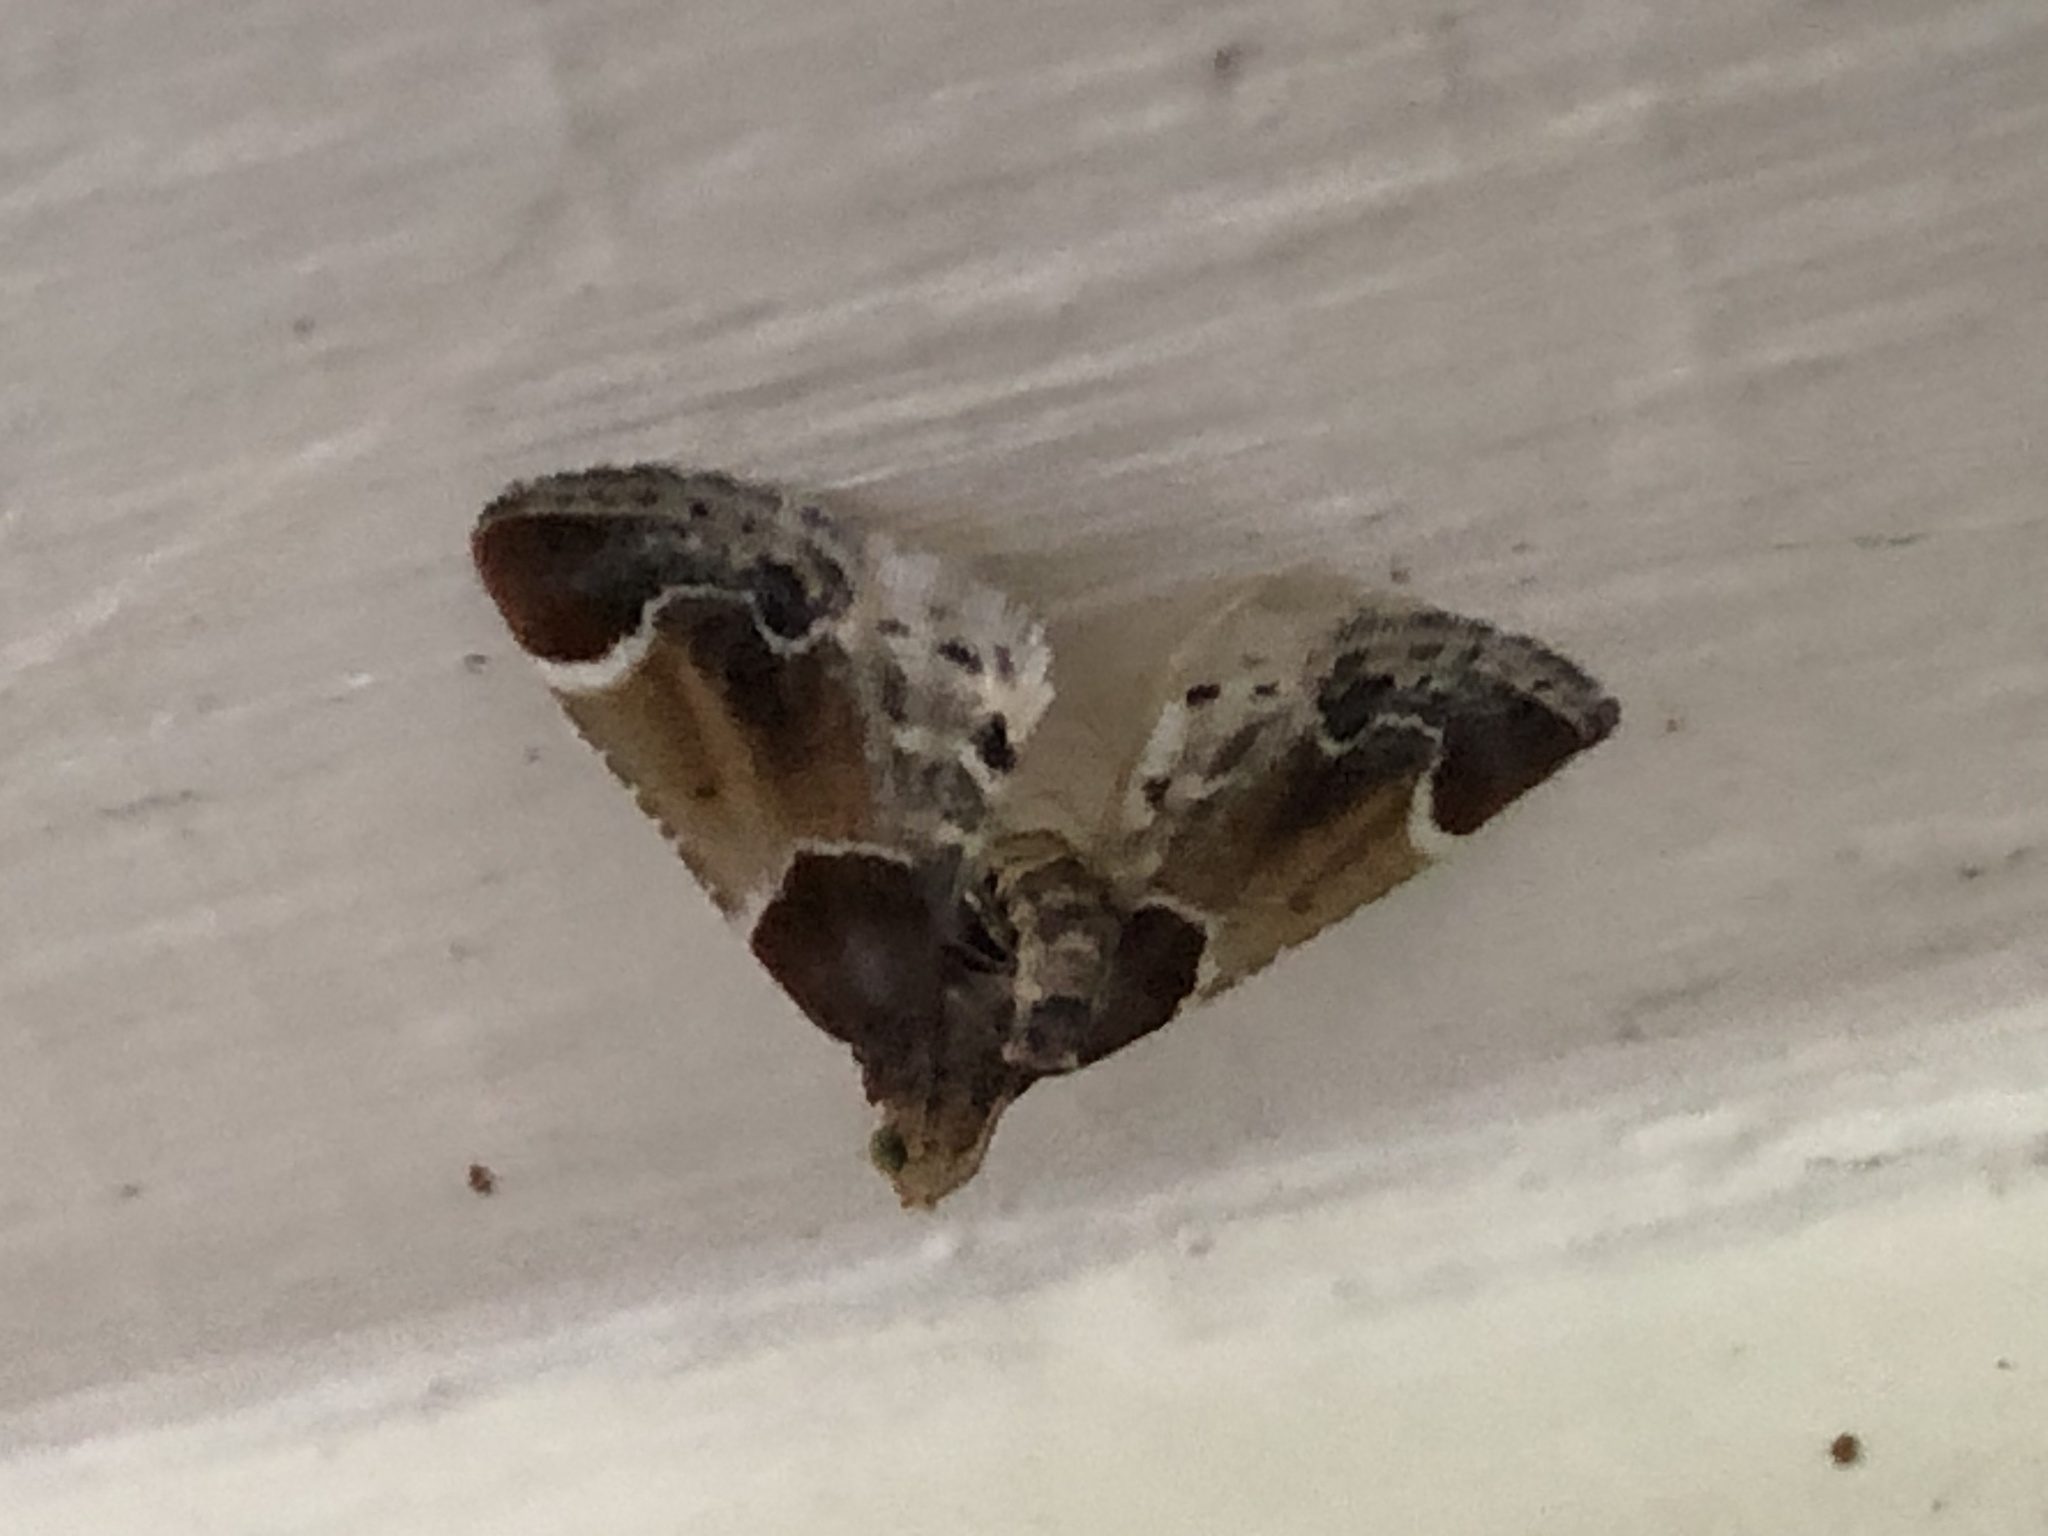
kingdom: Animalia
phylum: Arthropoda
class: Insecta
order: Lepidoptera
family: Pyralidae
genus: Pyralis
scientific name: Pyralis farinalis
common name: Meal moth
